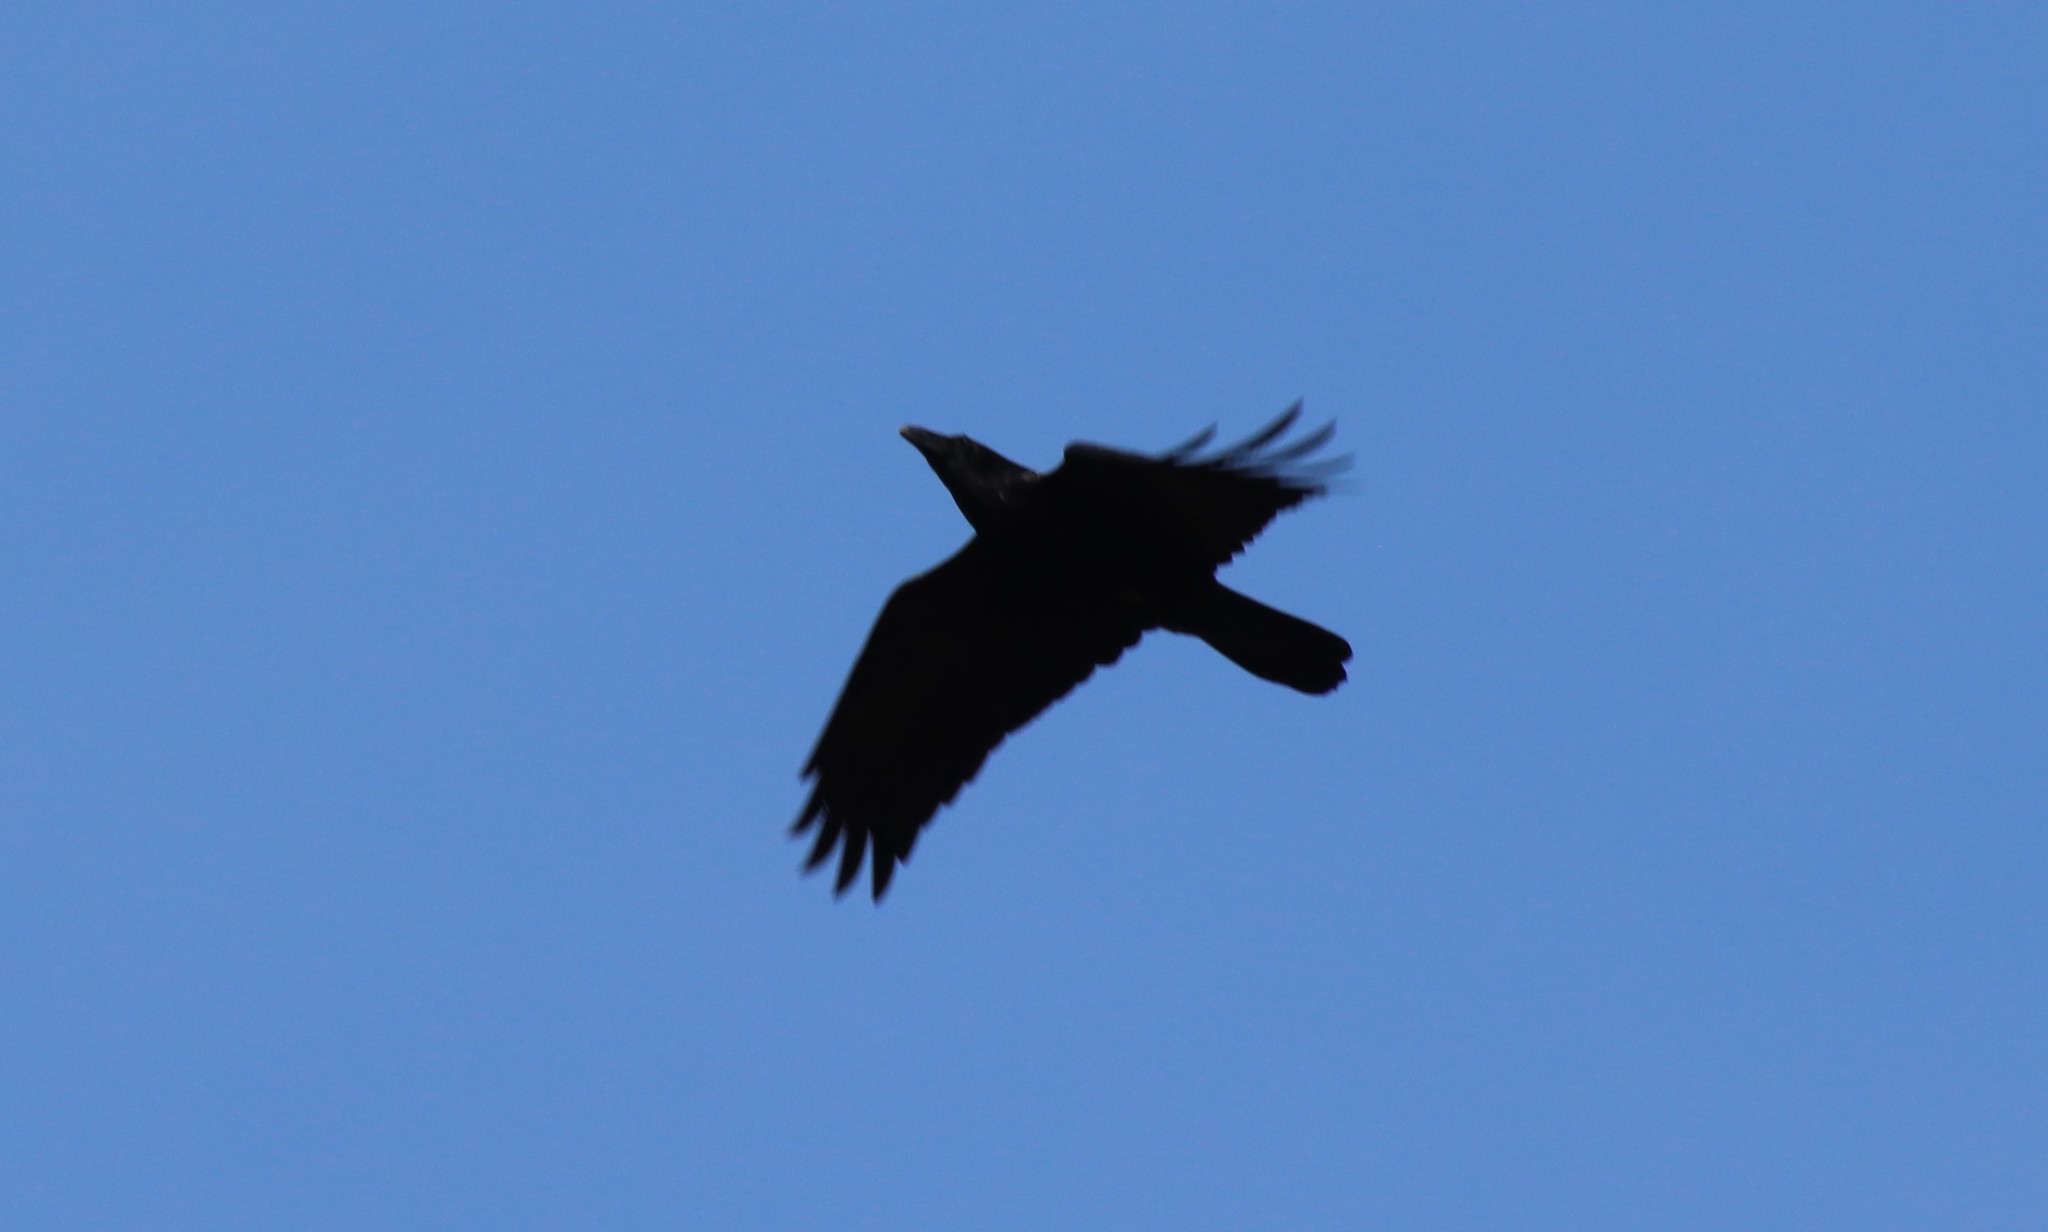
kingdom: Animalia
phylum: Chordata
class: Aves
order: Passeriformes
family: Corvidae
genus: Corvus
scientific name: Corvus corax
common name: Common raven
